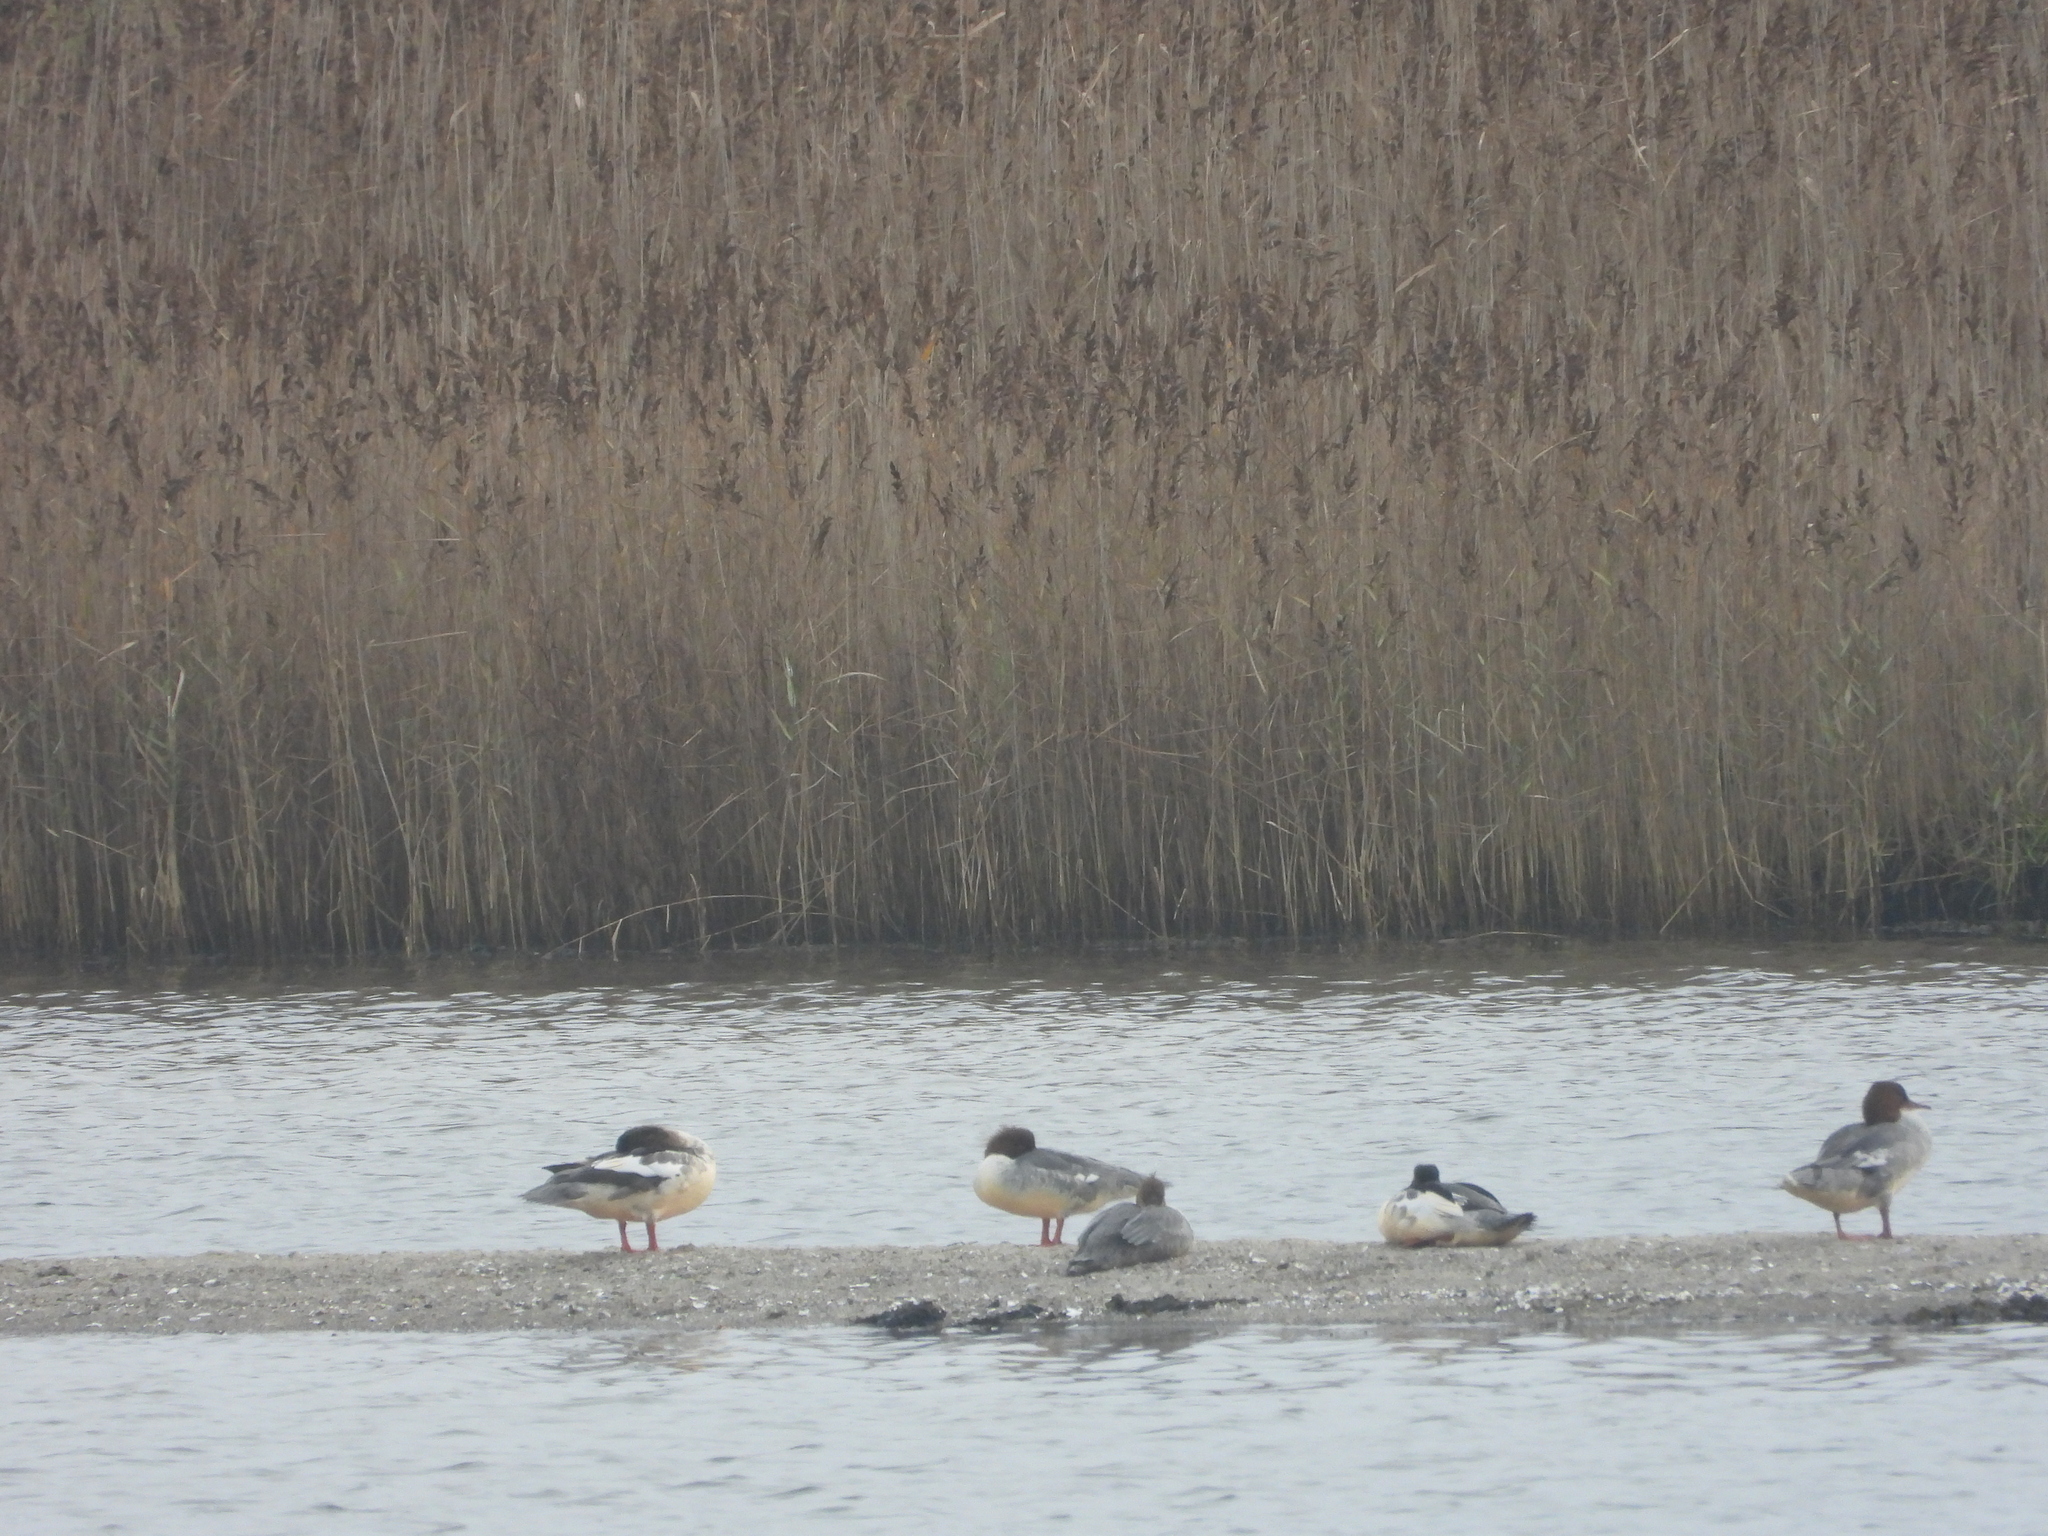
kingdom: Animalia
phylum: Chordata
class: Aves
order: Anseriformes
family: Anatidae
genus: Mergus
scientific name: Mergus merganser
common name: Common merganser
